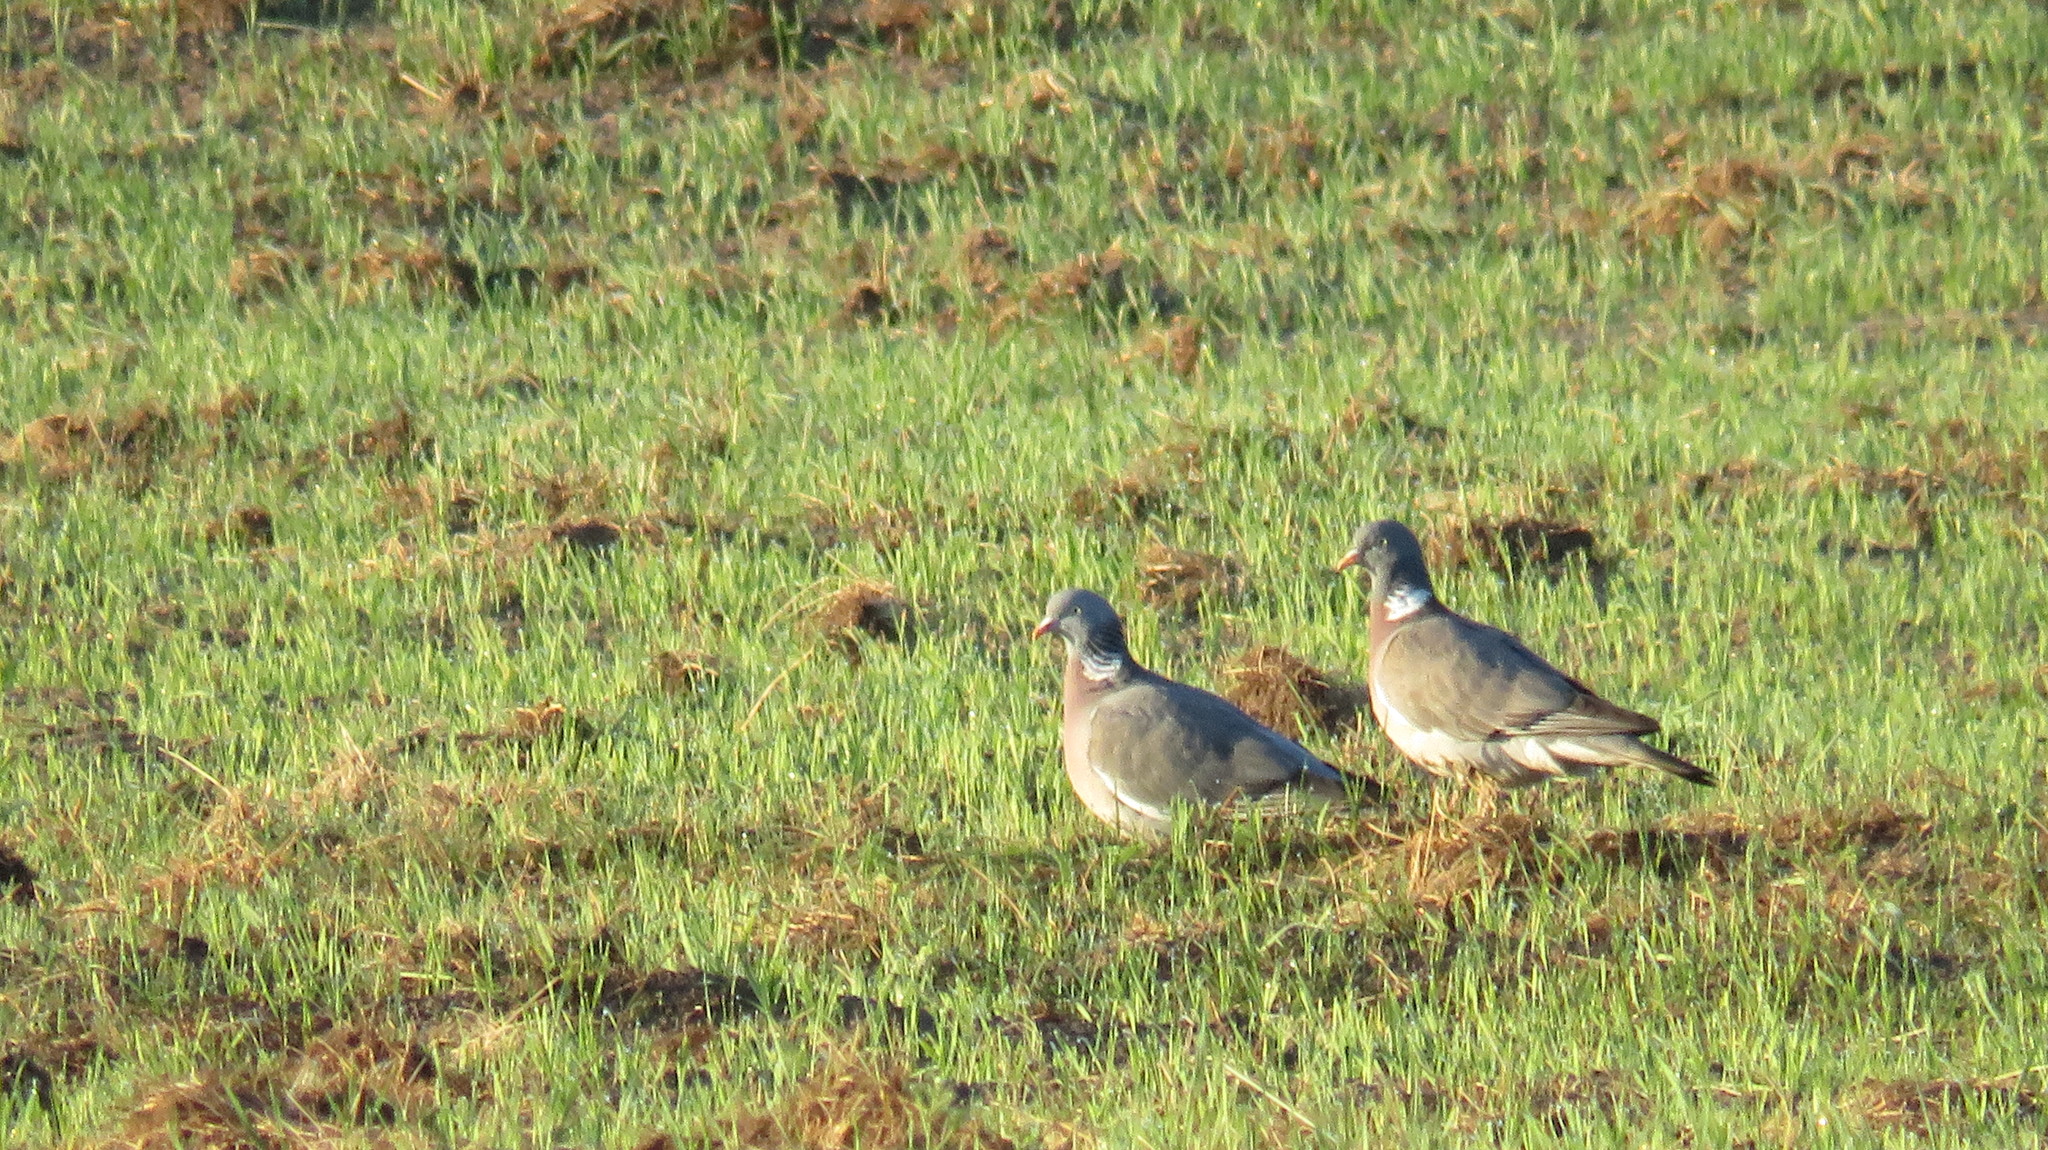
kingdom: Animalia
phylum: Chordata
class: Aves
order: Columbiformes
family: Columbidae
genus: Columba
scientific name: Columba palumbus
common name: Common wood pigeon
